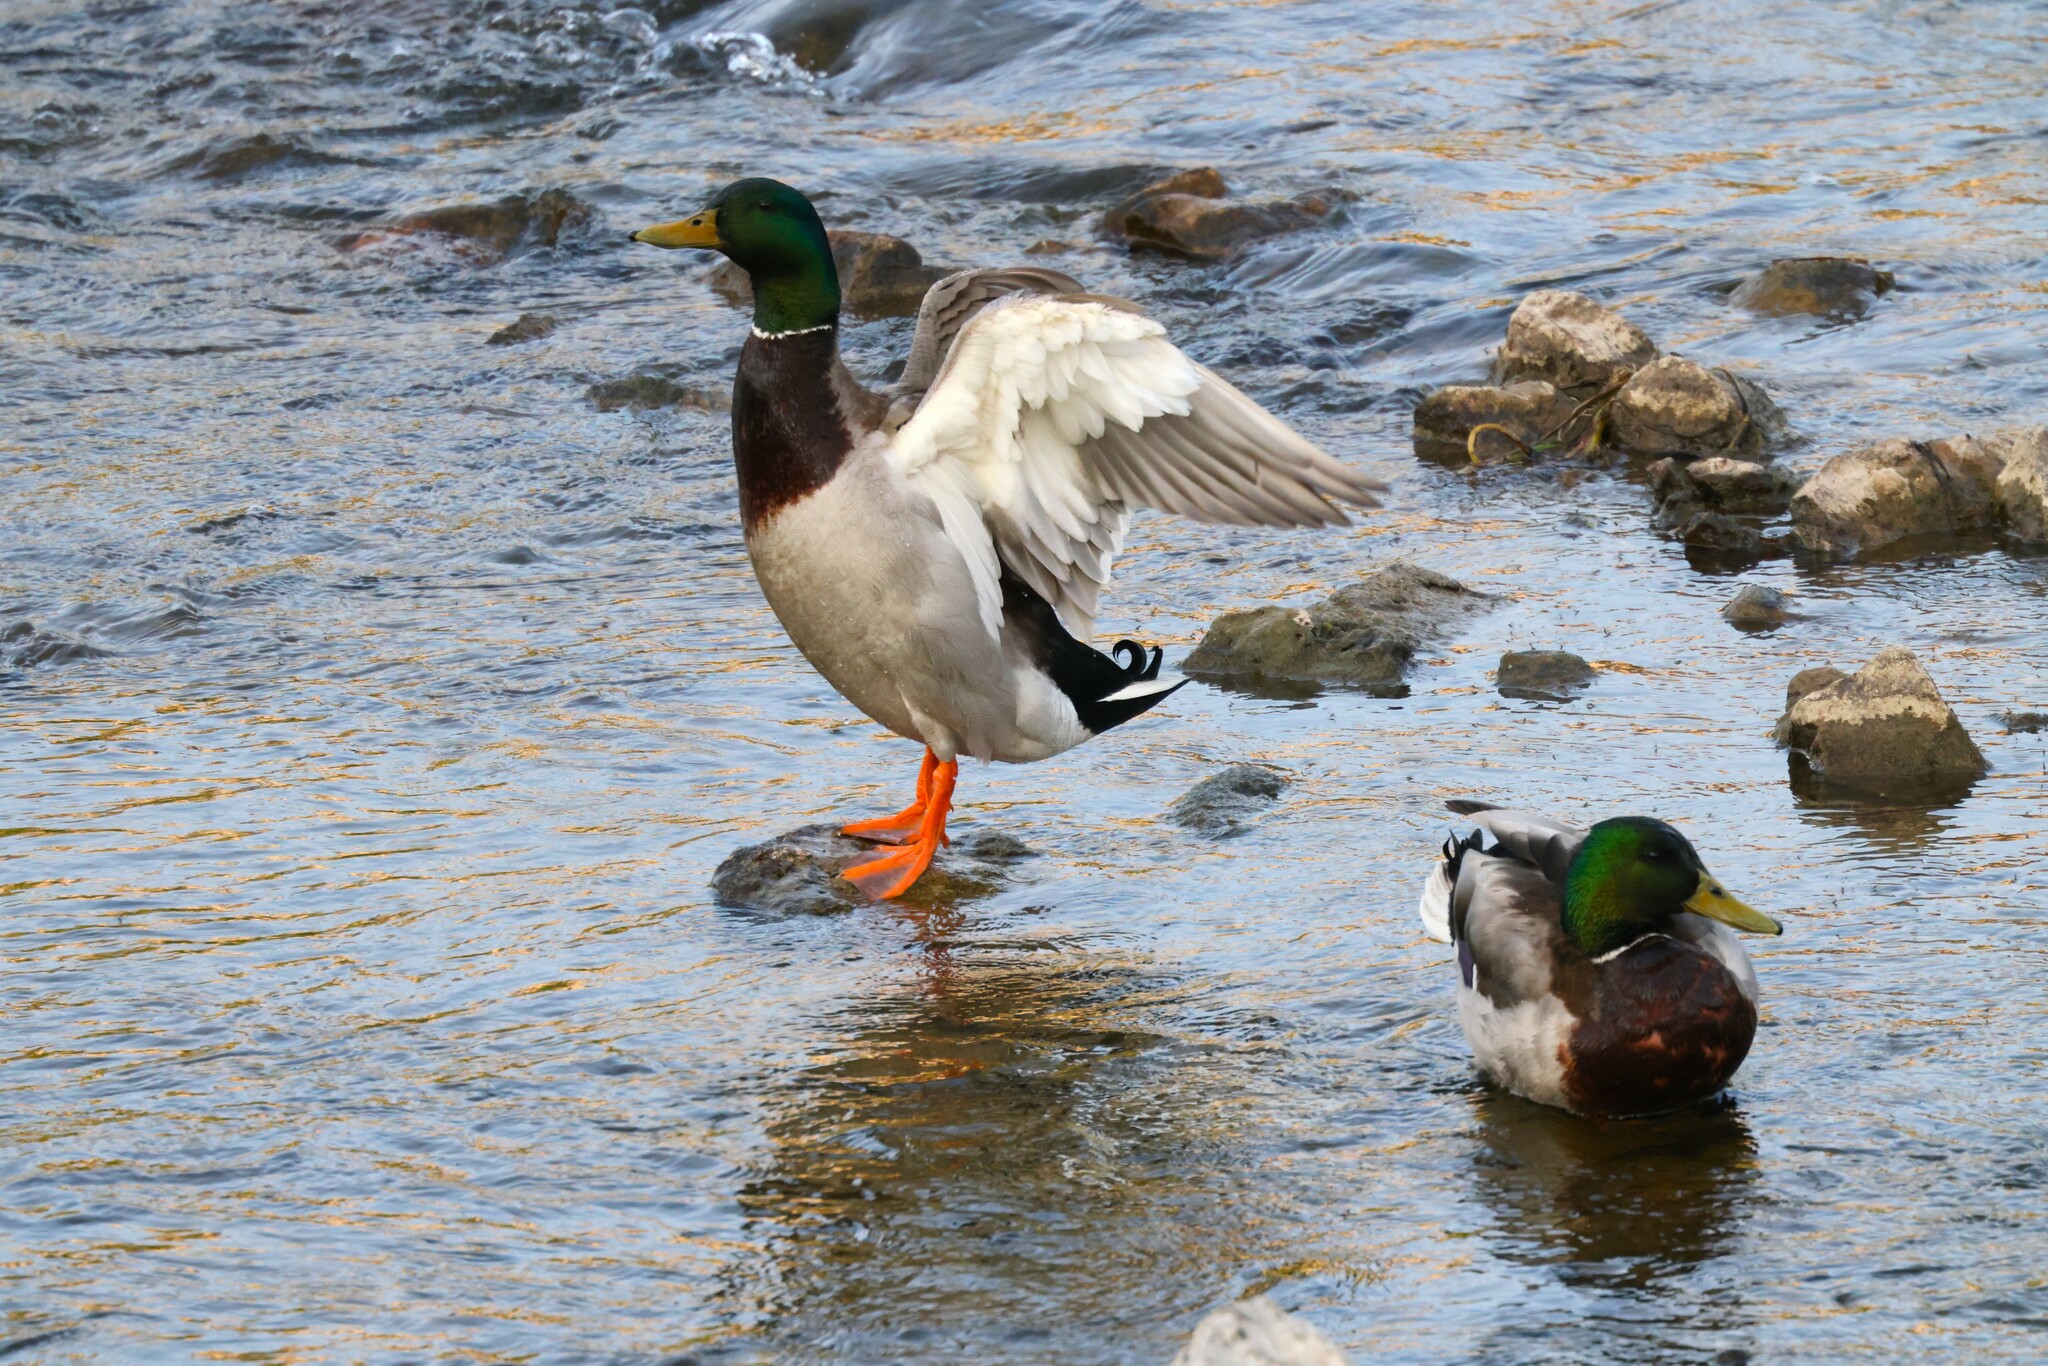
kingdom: Animalia
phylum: Chordata
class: Aves
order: Anseriformes
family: Anatidae
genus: Anas
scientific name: Anas platyrhynchos
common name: Mallard
